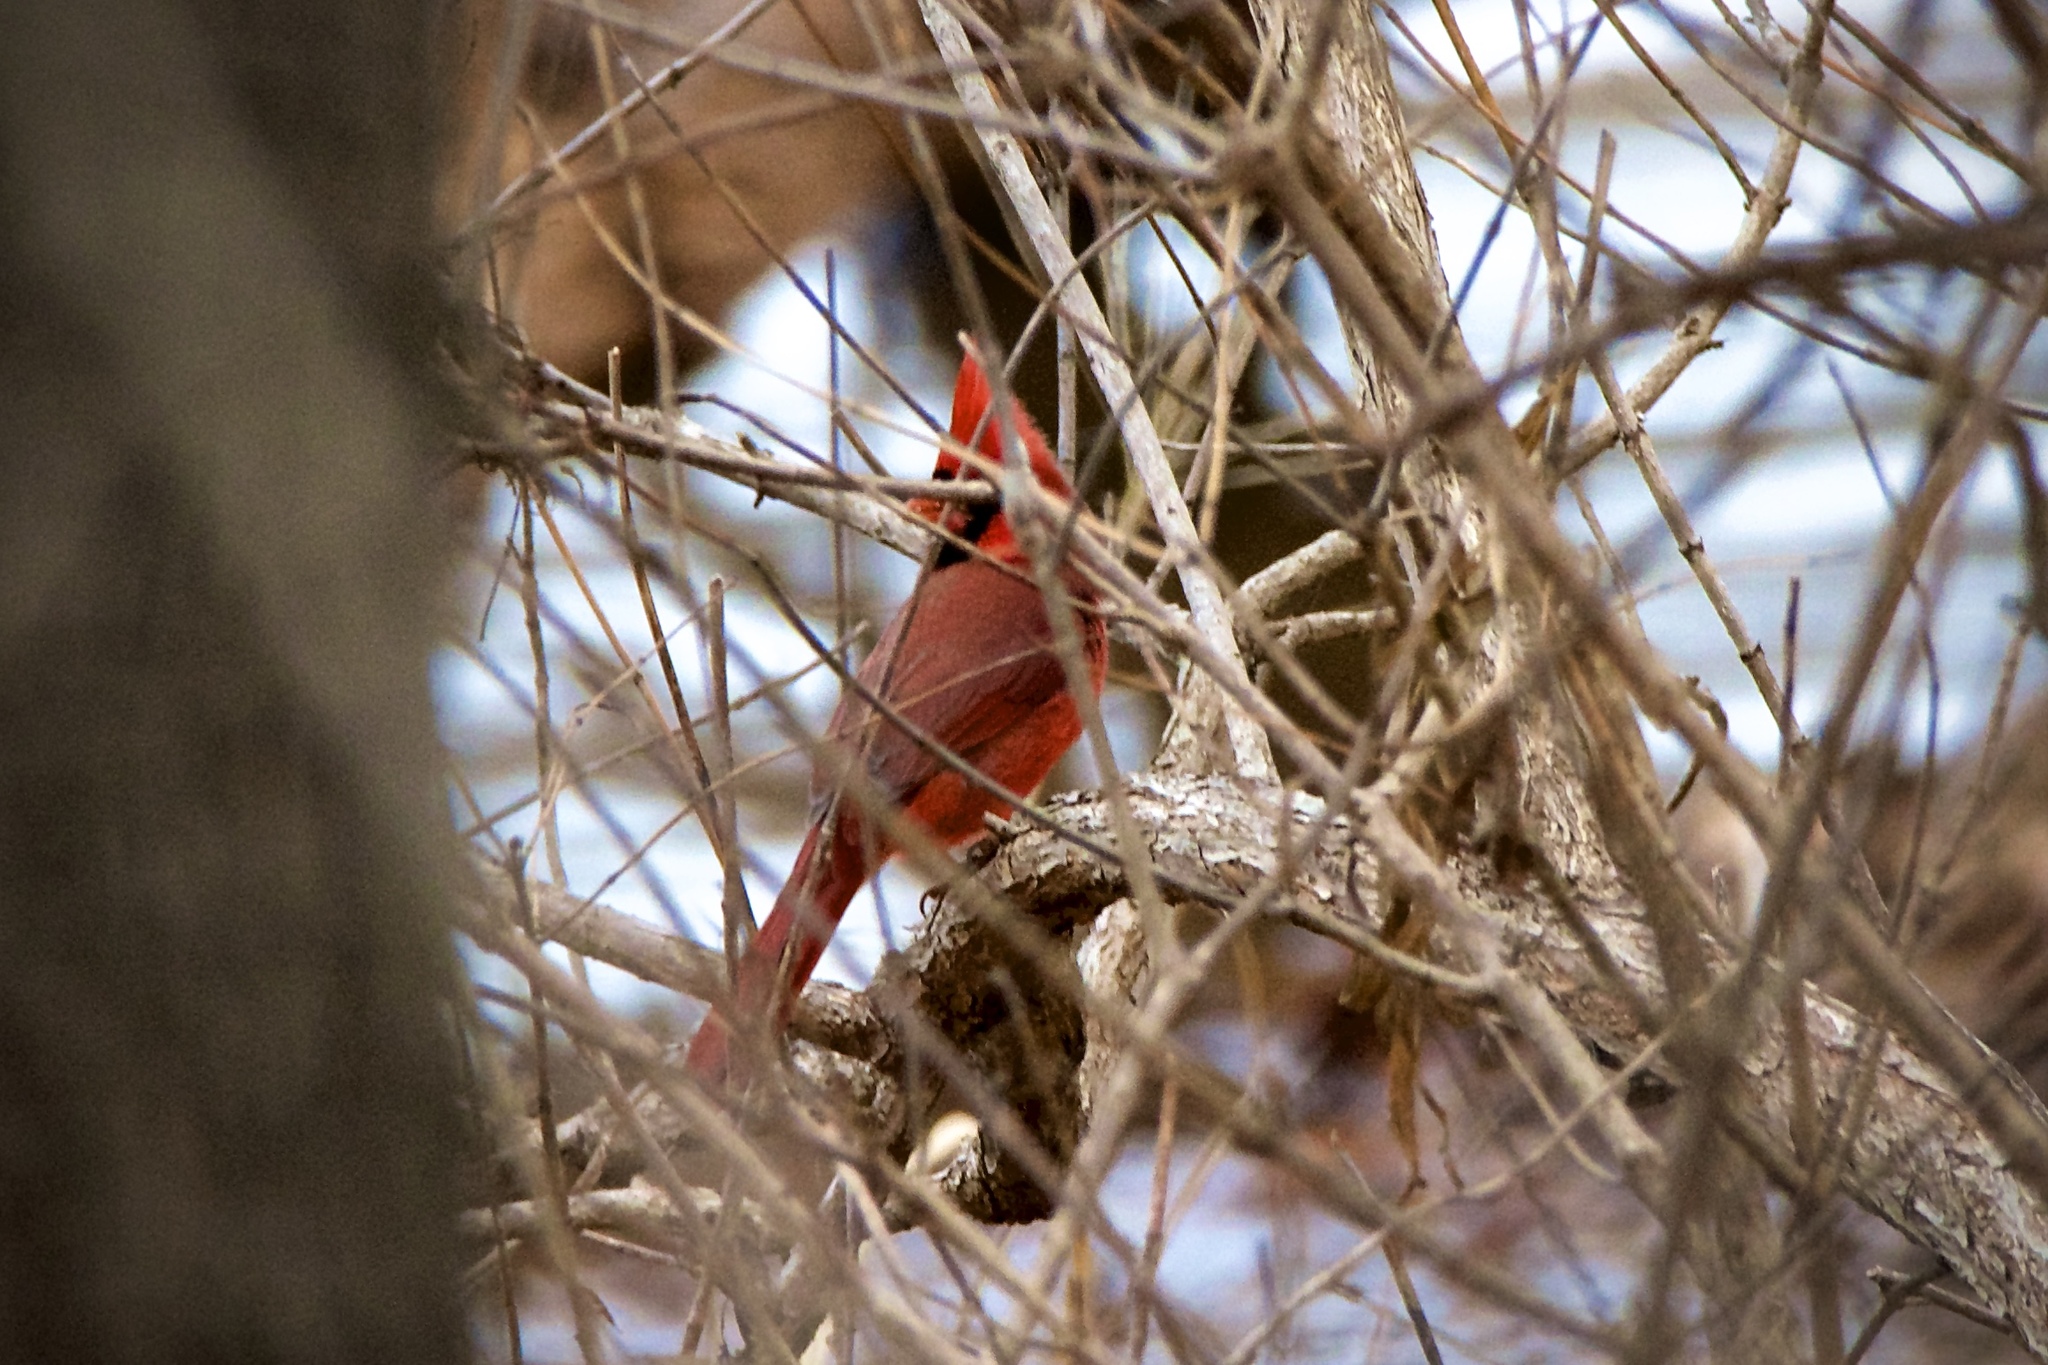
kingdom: Animalia
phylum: Chordata
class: Aves
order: Passeriformes
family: Cardinalidae
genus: Cardinalis
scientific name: Cardinalis cardinalis
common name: Northern cardinal
